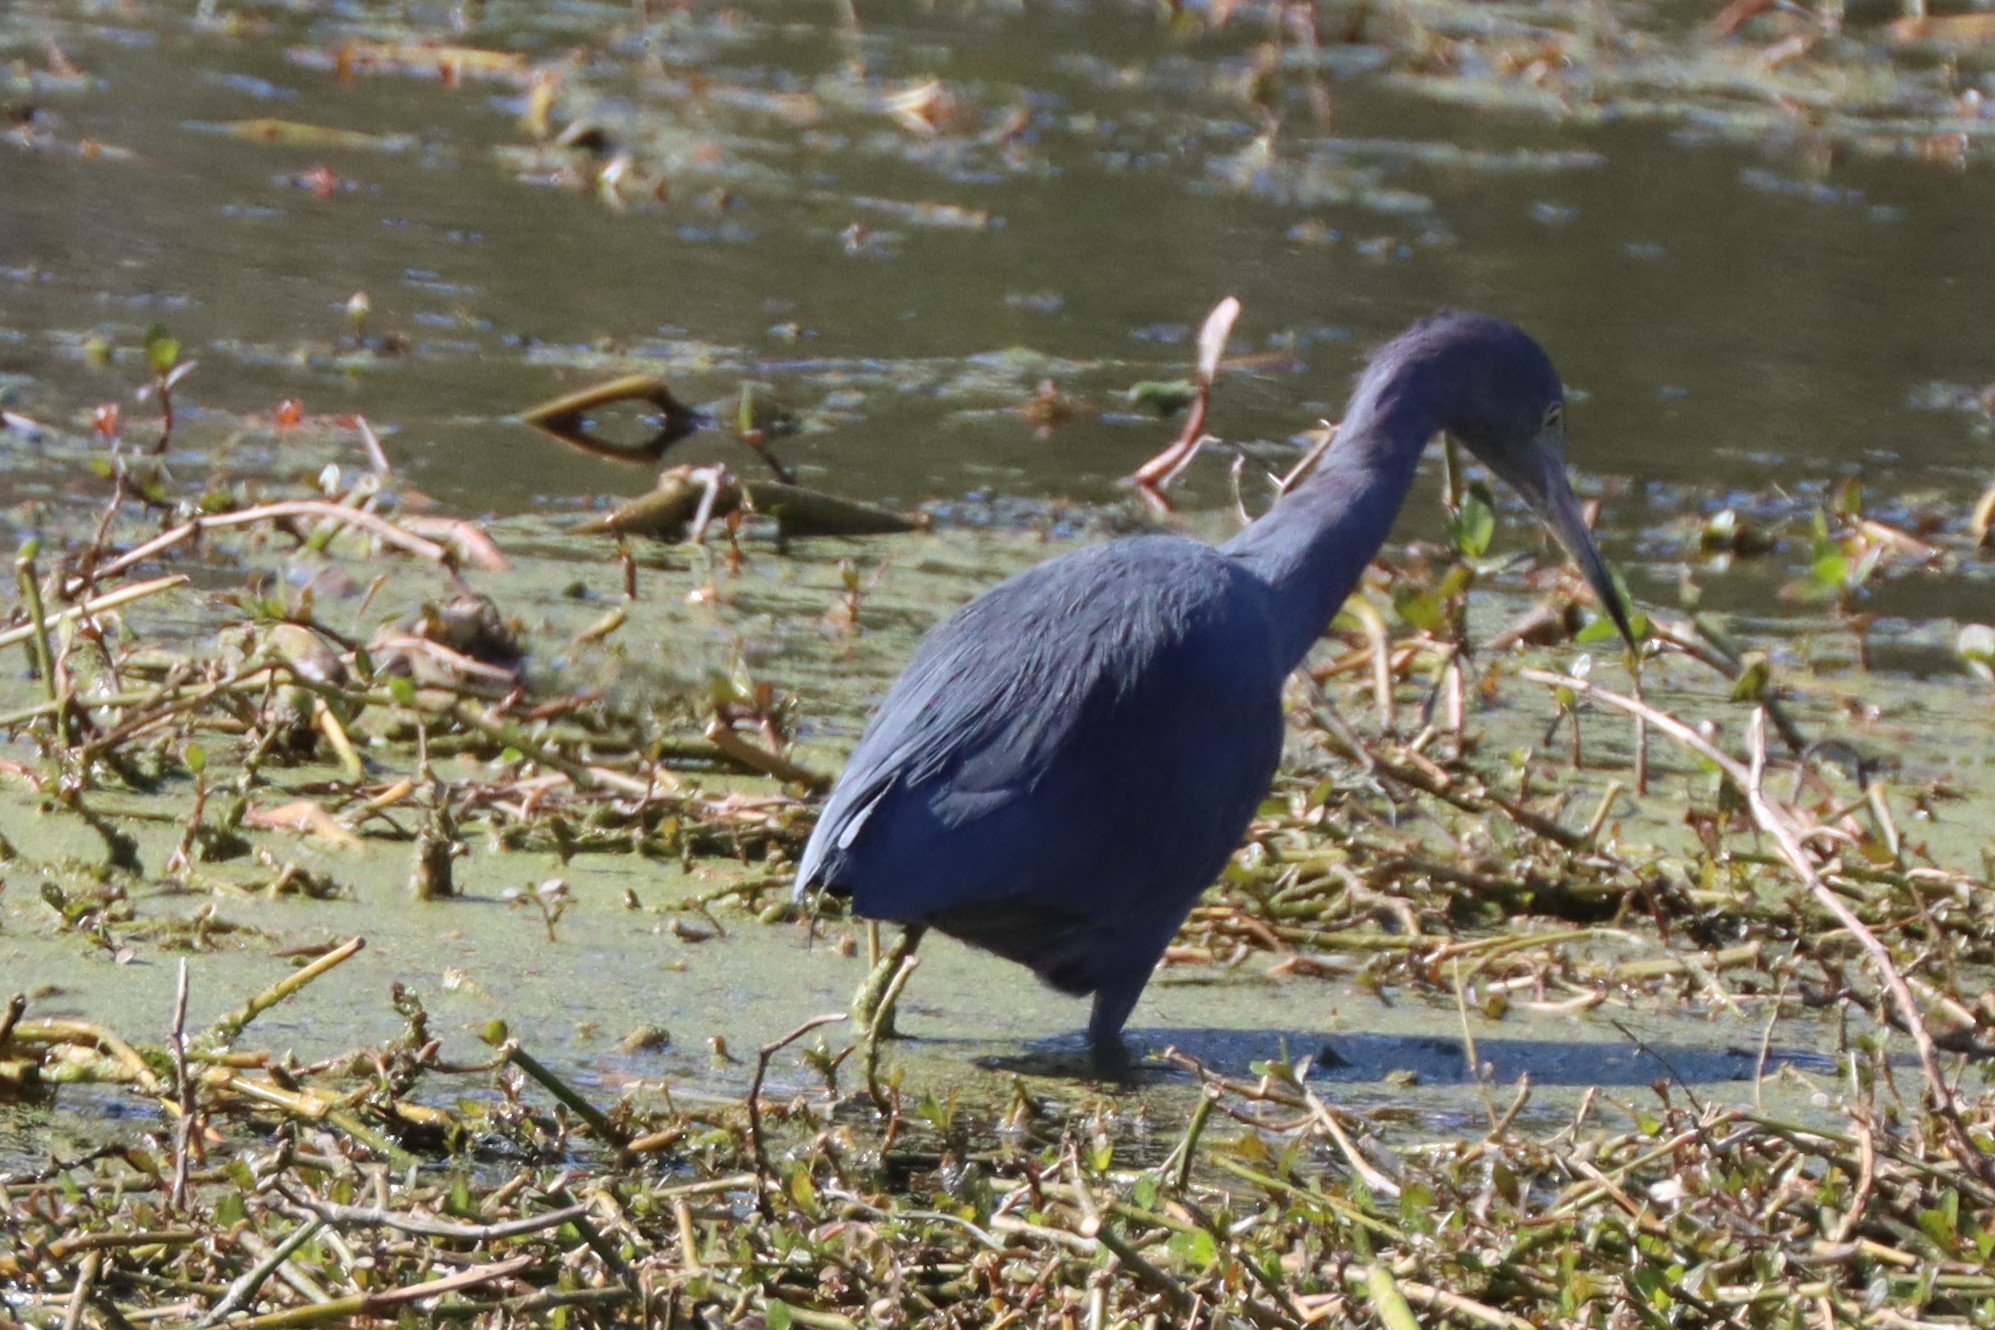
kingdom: Animalia
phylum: Chordata
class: Aves
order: Pelecaniformes
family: Ardeidae
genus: Egretta
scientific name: Egretta caerulea
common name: Little blue heron
